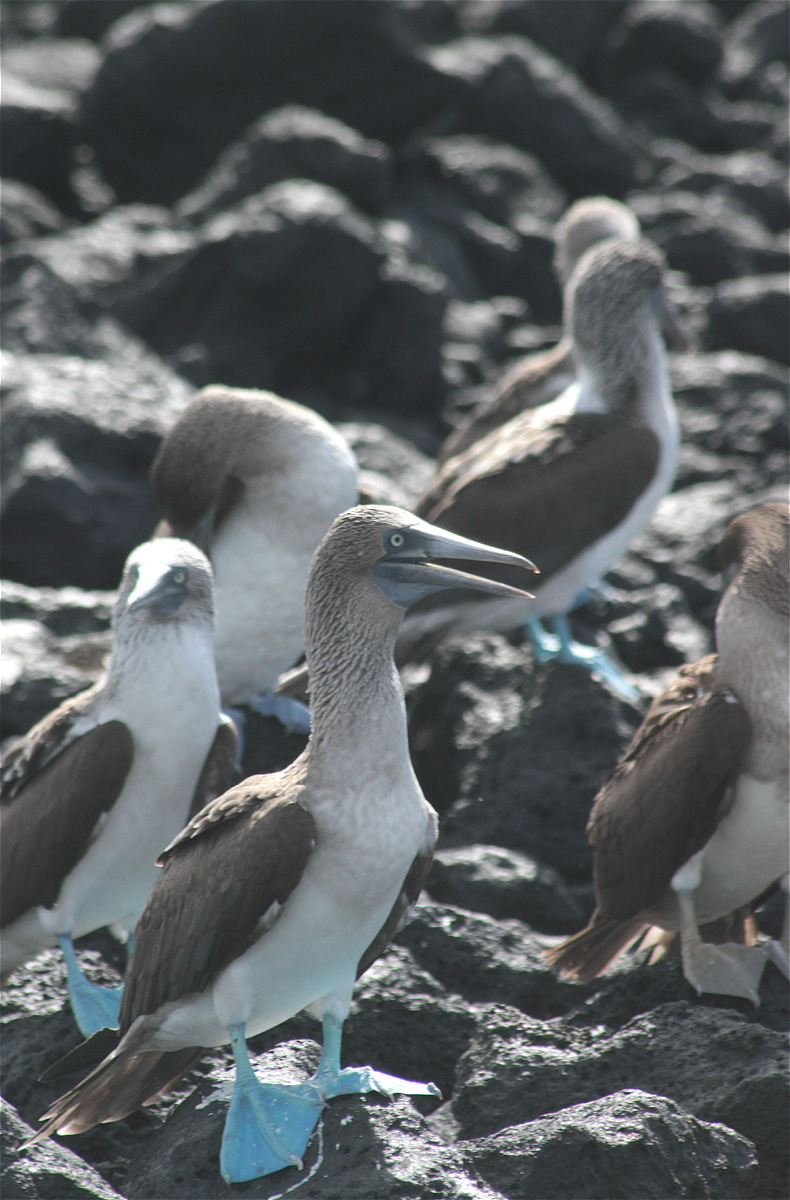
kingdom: Animalia
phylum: Chordata
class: Aves
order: Suliformes
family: Sulidae
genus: Sula
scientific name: Sula nebouxii
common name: Blue-footed booby
